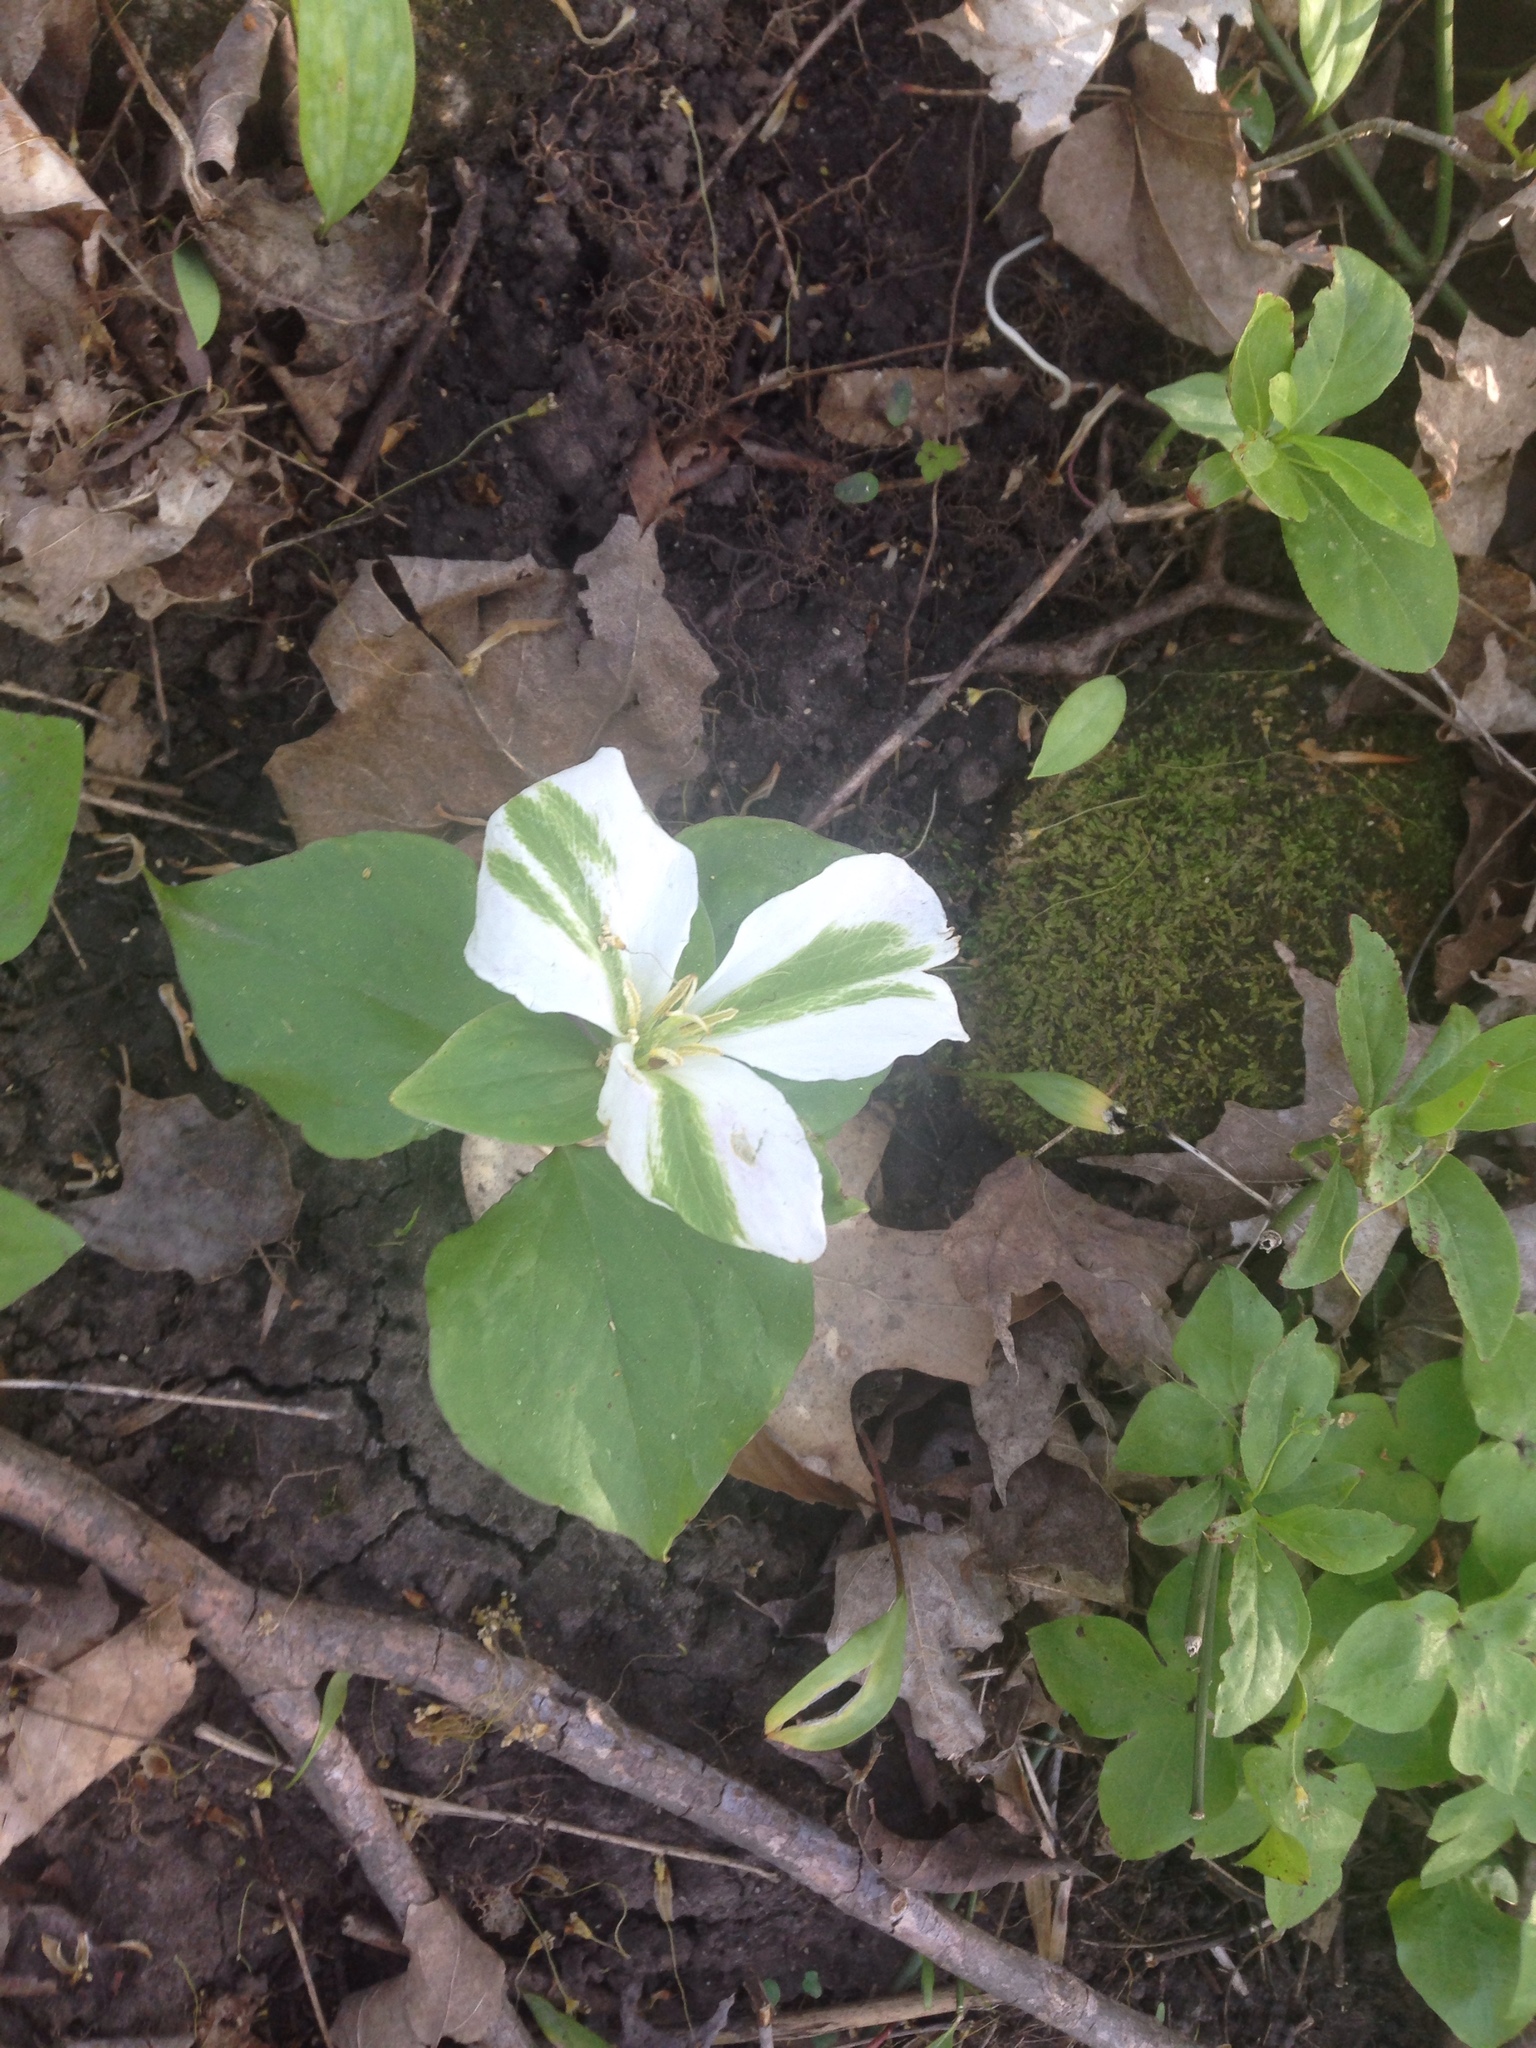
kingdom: Plantae
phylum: Tracheophyta
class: Liliopsida
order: Liliales
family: Melanthiaceae
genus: Trillium
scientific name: Trillium grandiflorum
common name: Great white trillium
